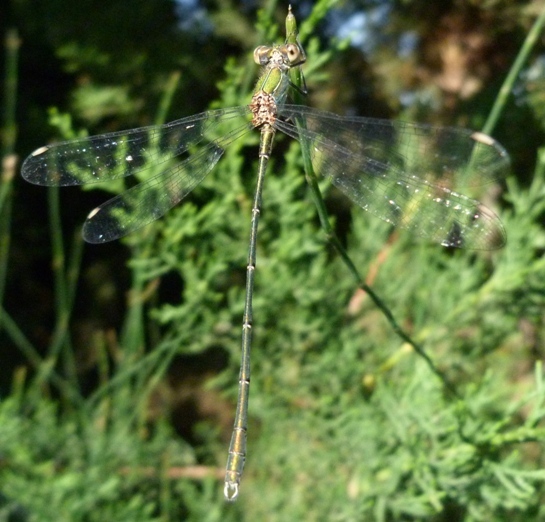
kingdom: Animalia
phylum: Arthropoda
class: Insecta
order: Odonata
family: Lestidae
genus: Chalcolestes
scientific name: Chalcolestes viridis
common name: Green emerald damselfly
